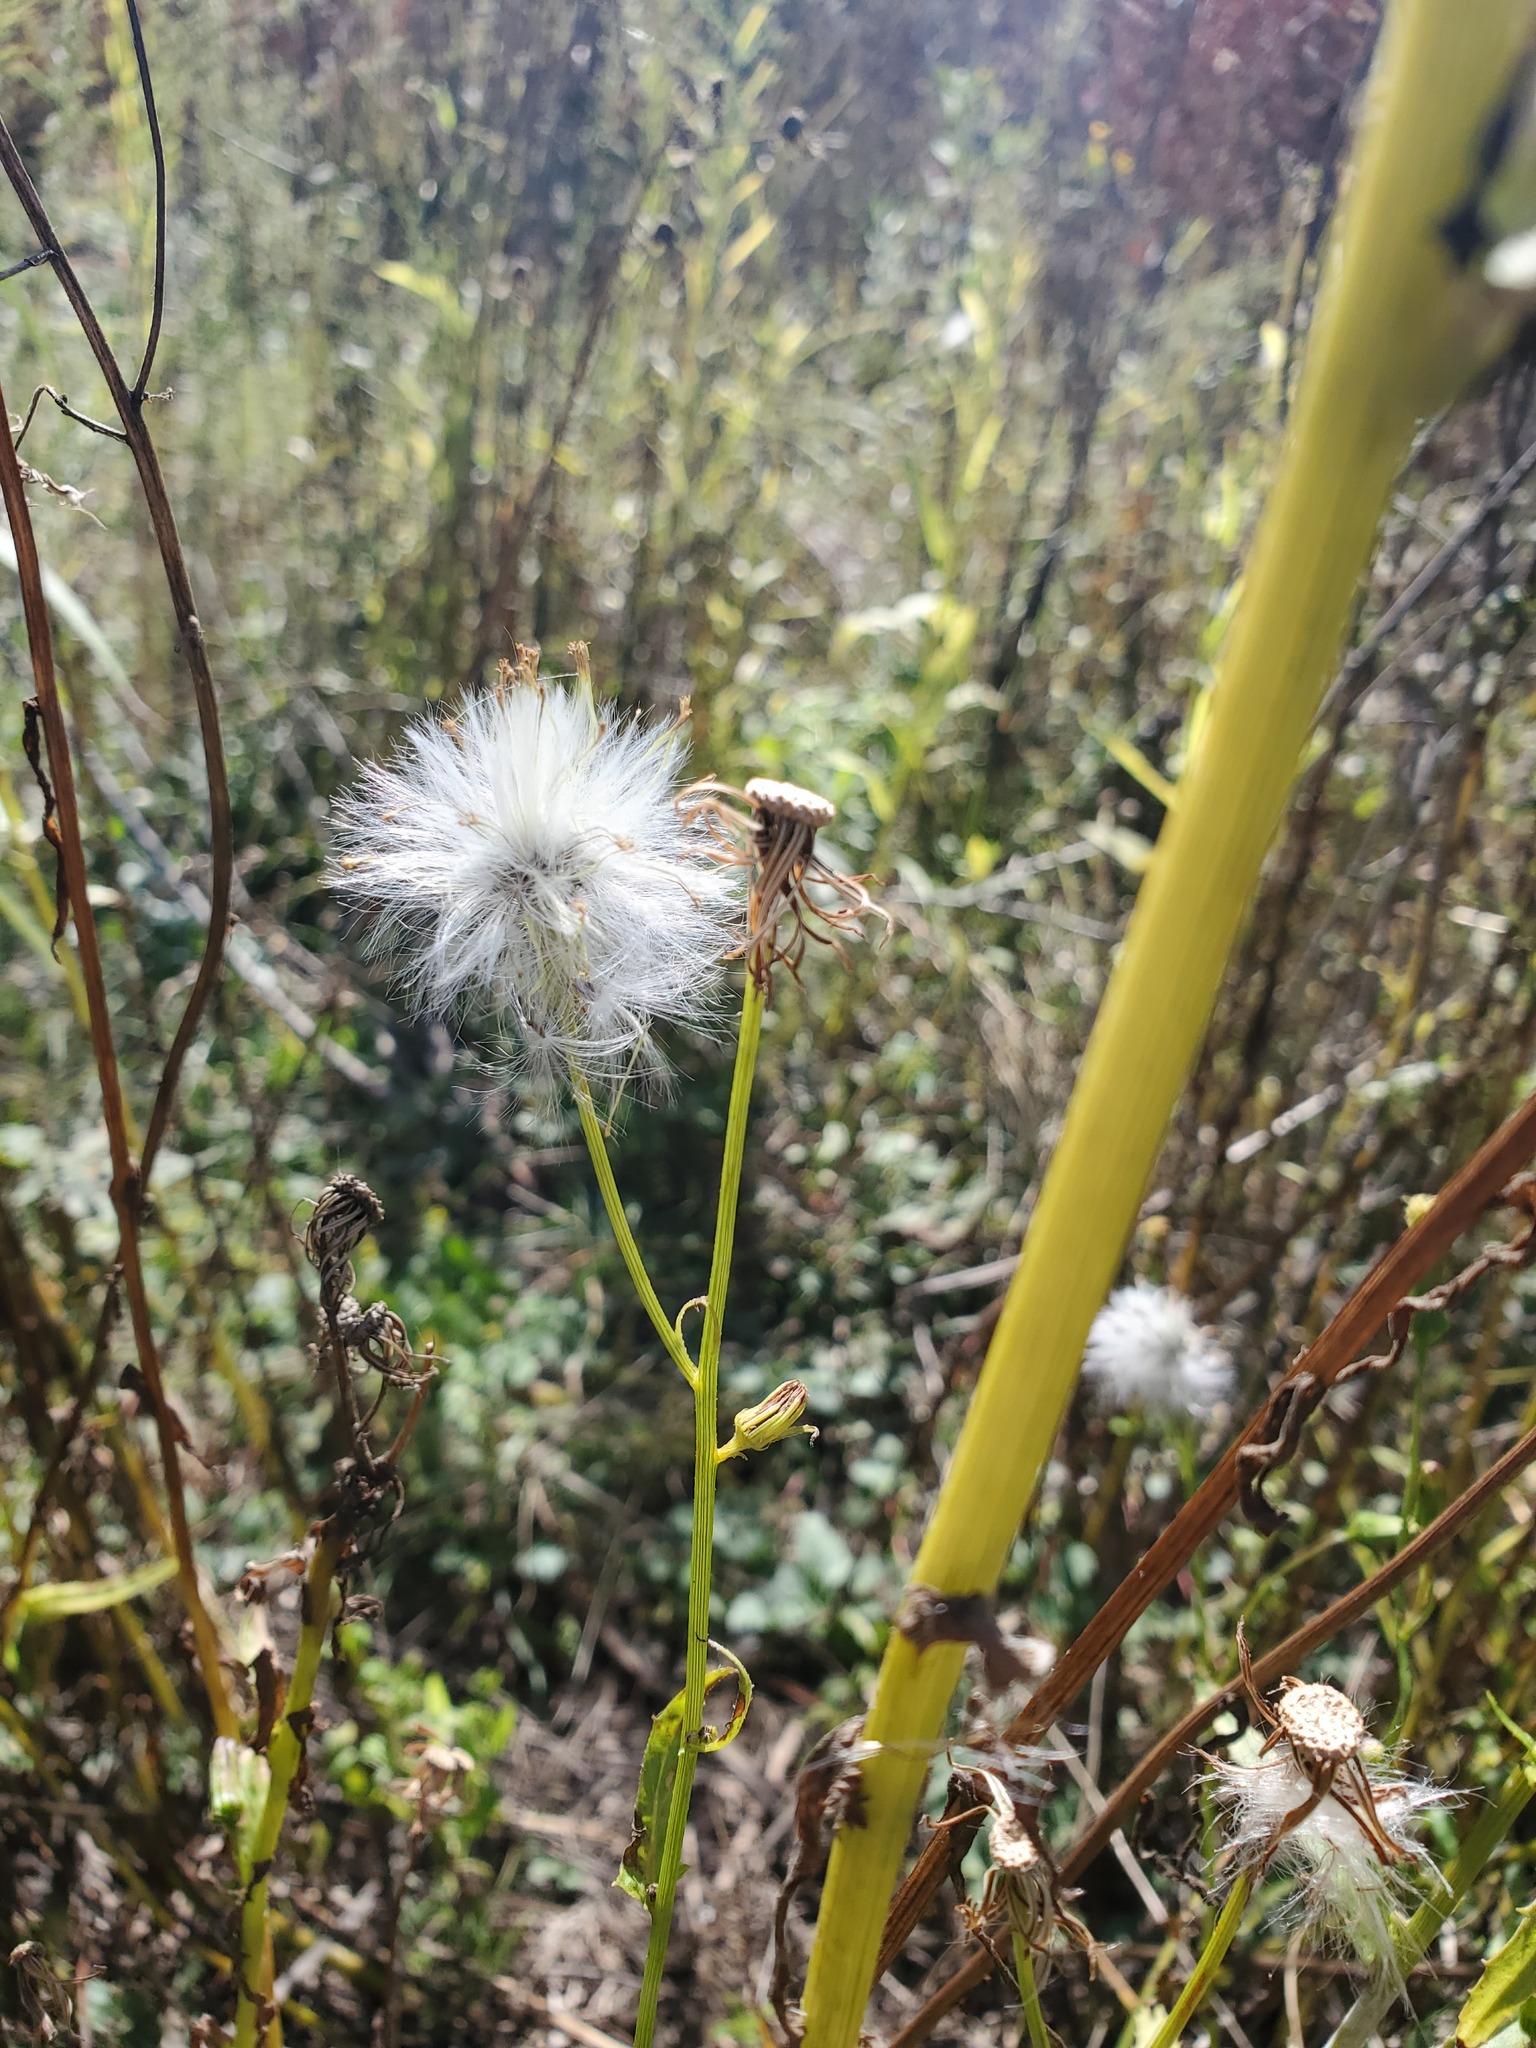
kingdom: Plantae
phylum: Tracheophyta
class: Magnoliopsida
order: Asterales
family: Asteraceae
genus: Erechtites
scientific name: Erechtites hieraciifolius
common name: American burnweed
